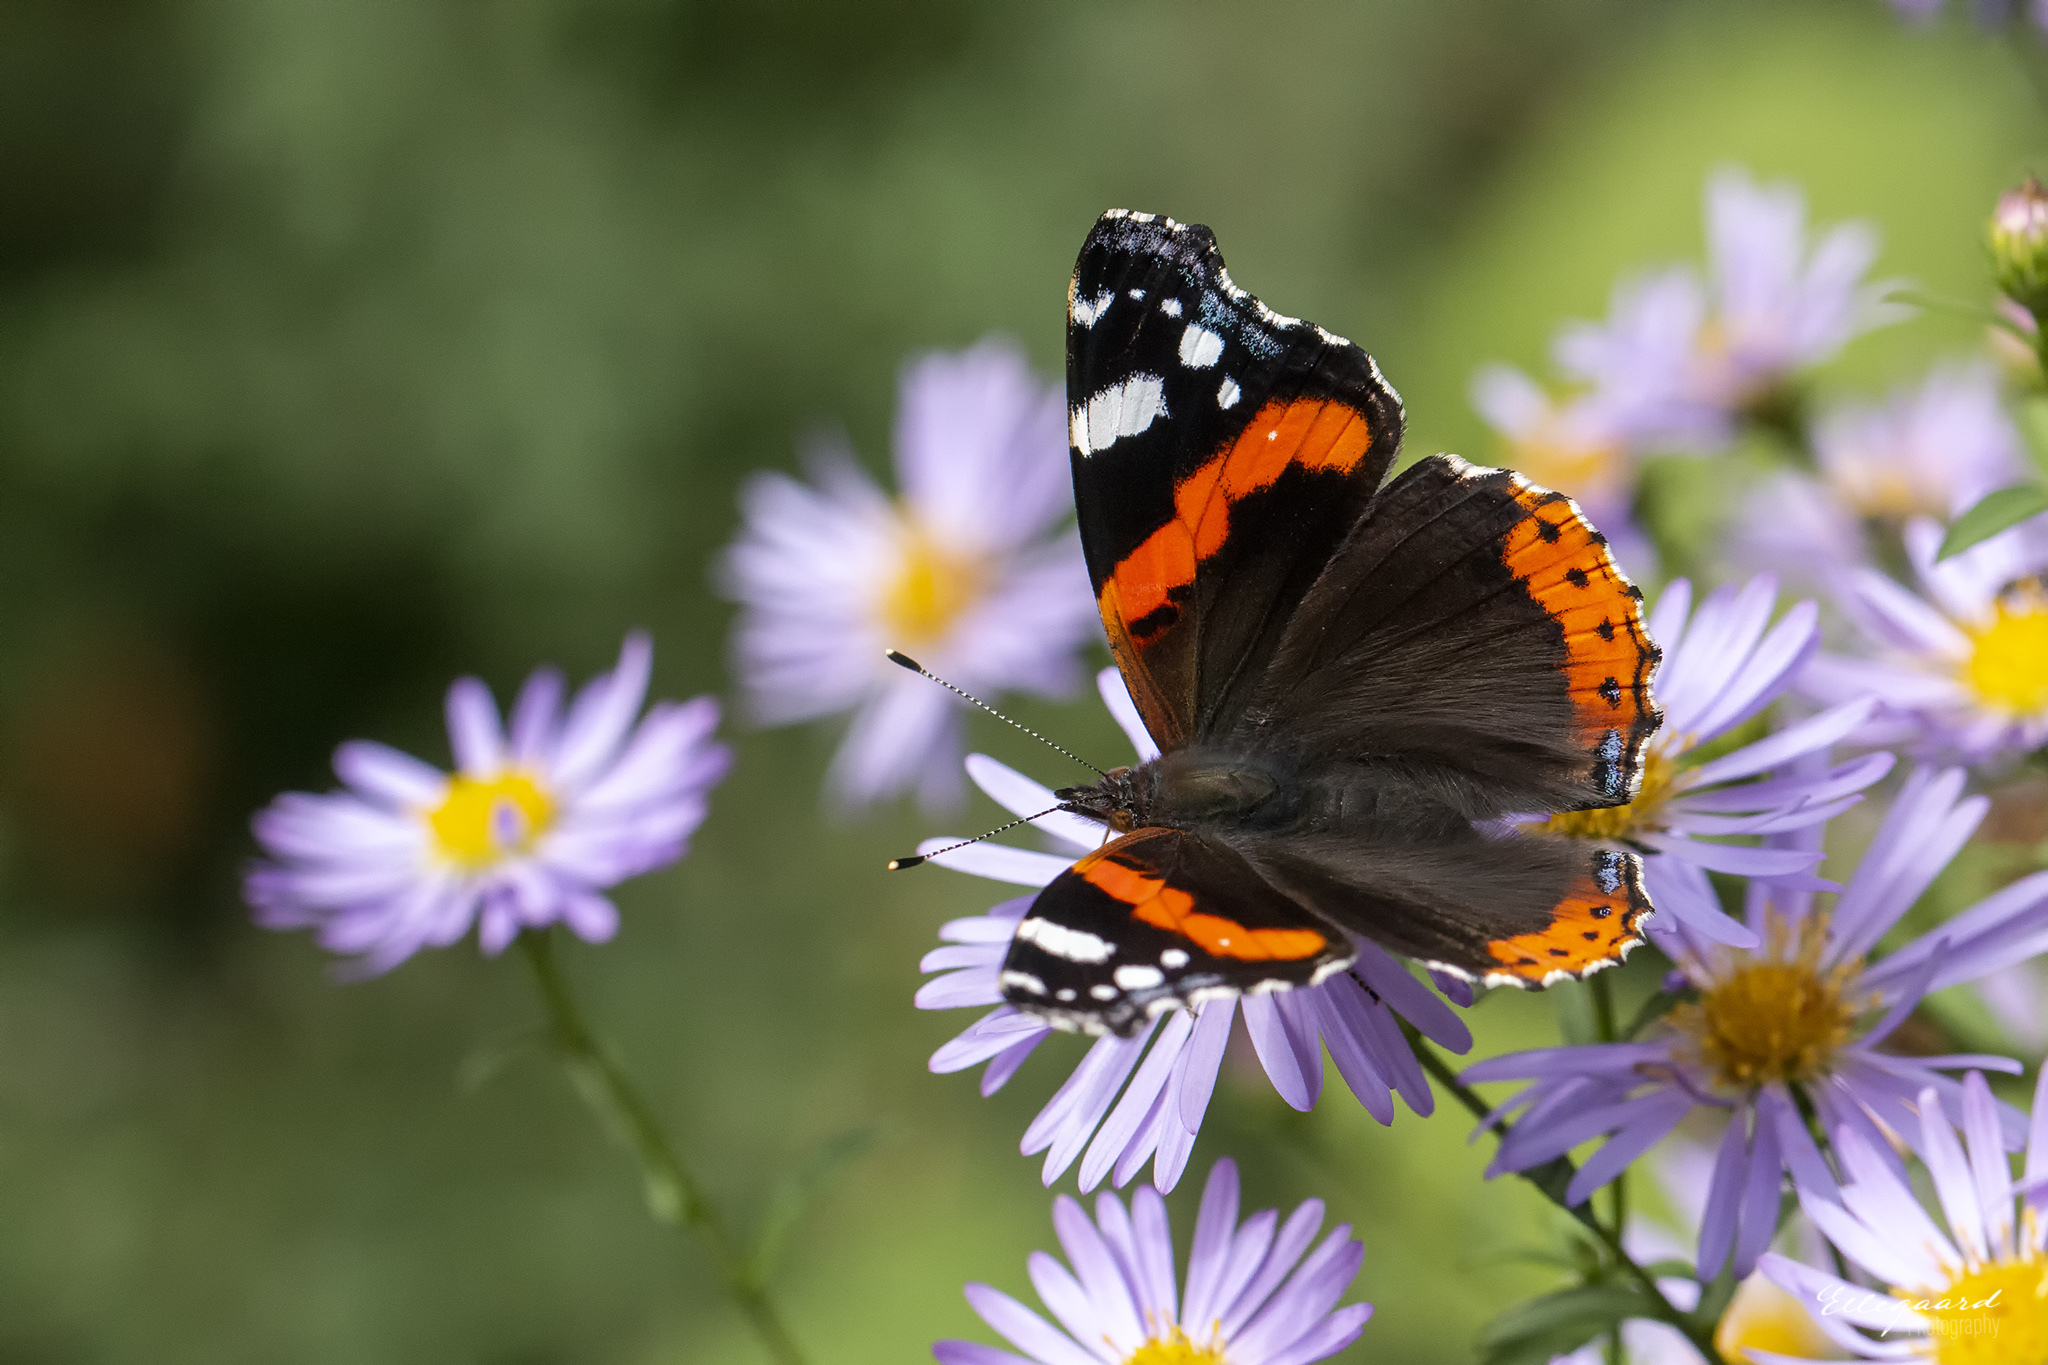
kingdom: Animalia
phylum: Arthropoda
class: Insecta
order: Lepidoptera
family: Nymphalidae
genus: Vanessa
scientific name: Vanessa atalanta
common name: Red admiral
